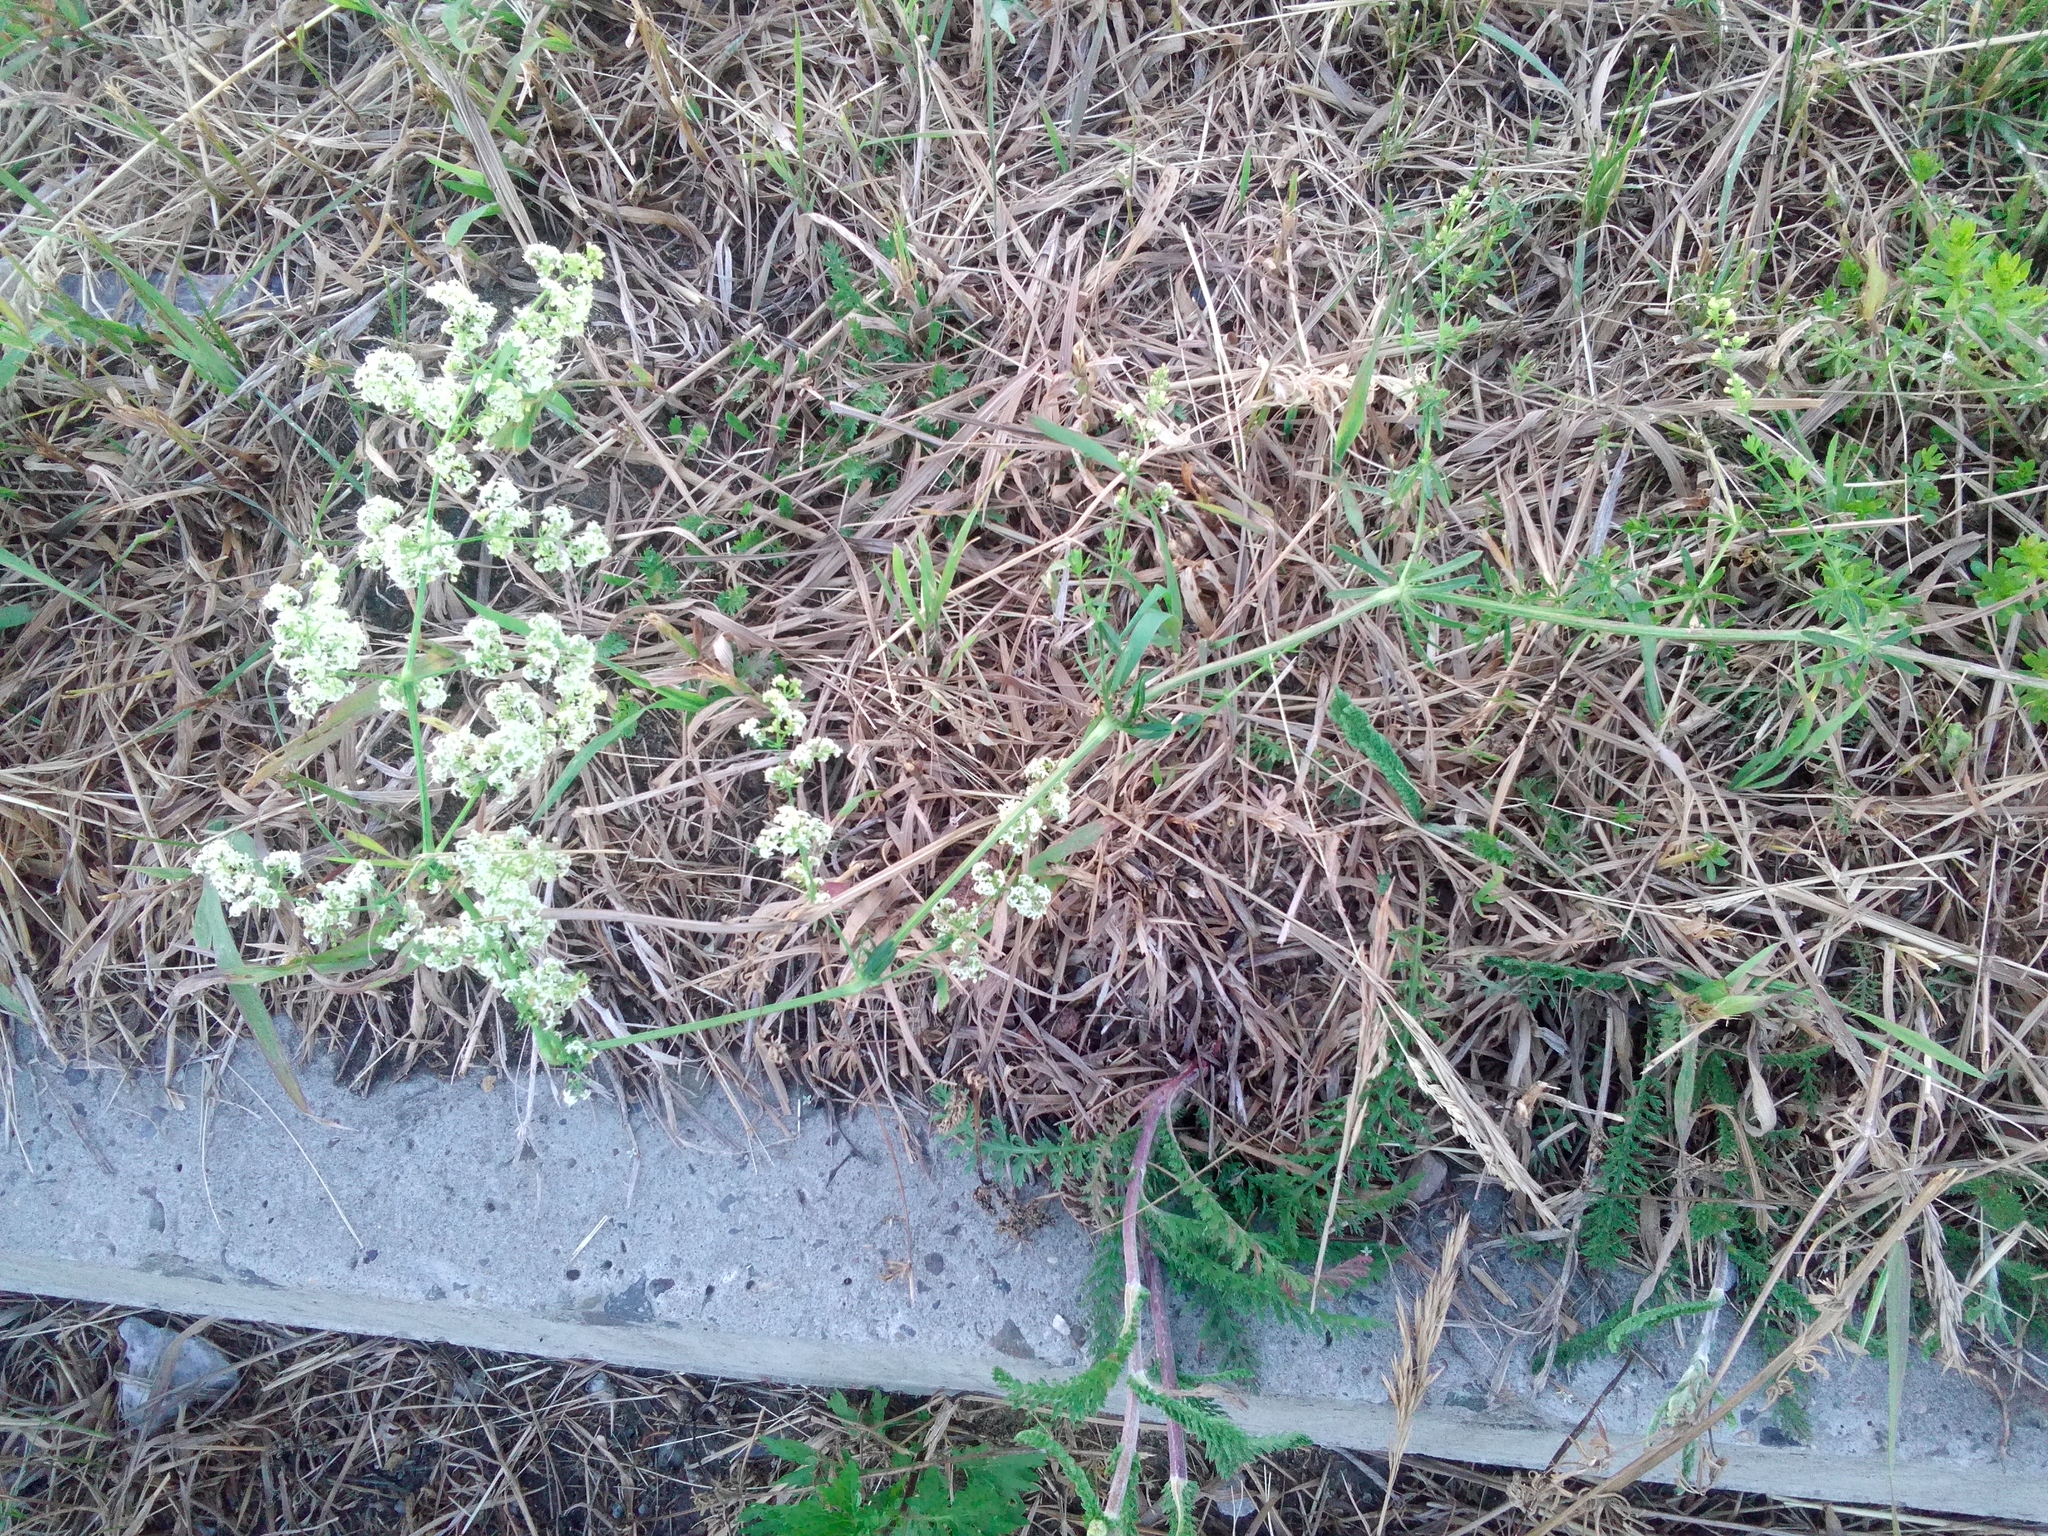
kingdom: Plantae
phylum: Tracheophyta
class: Magnoliopsida
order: Gentianales
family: Rubiaceae
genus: Galium
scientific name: Galium mollugo
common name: Hedge bedstraw
